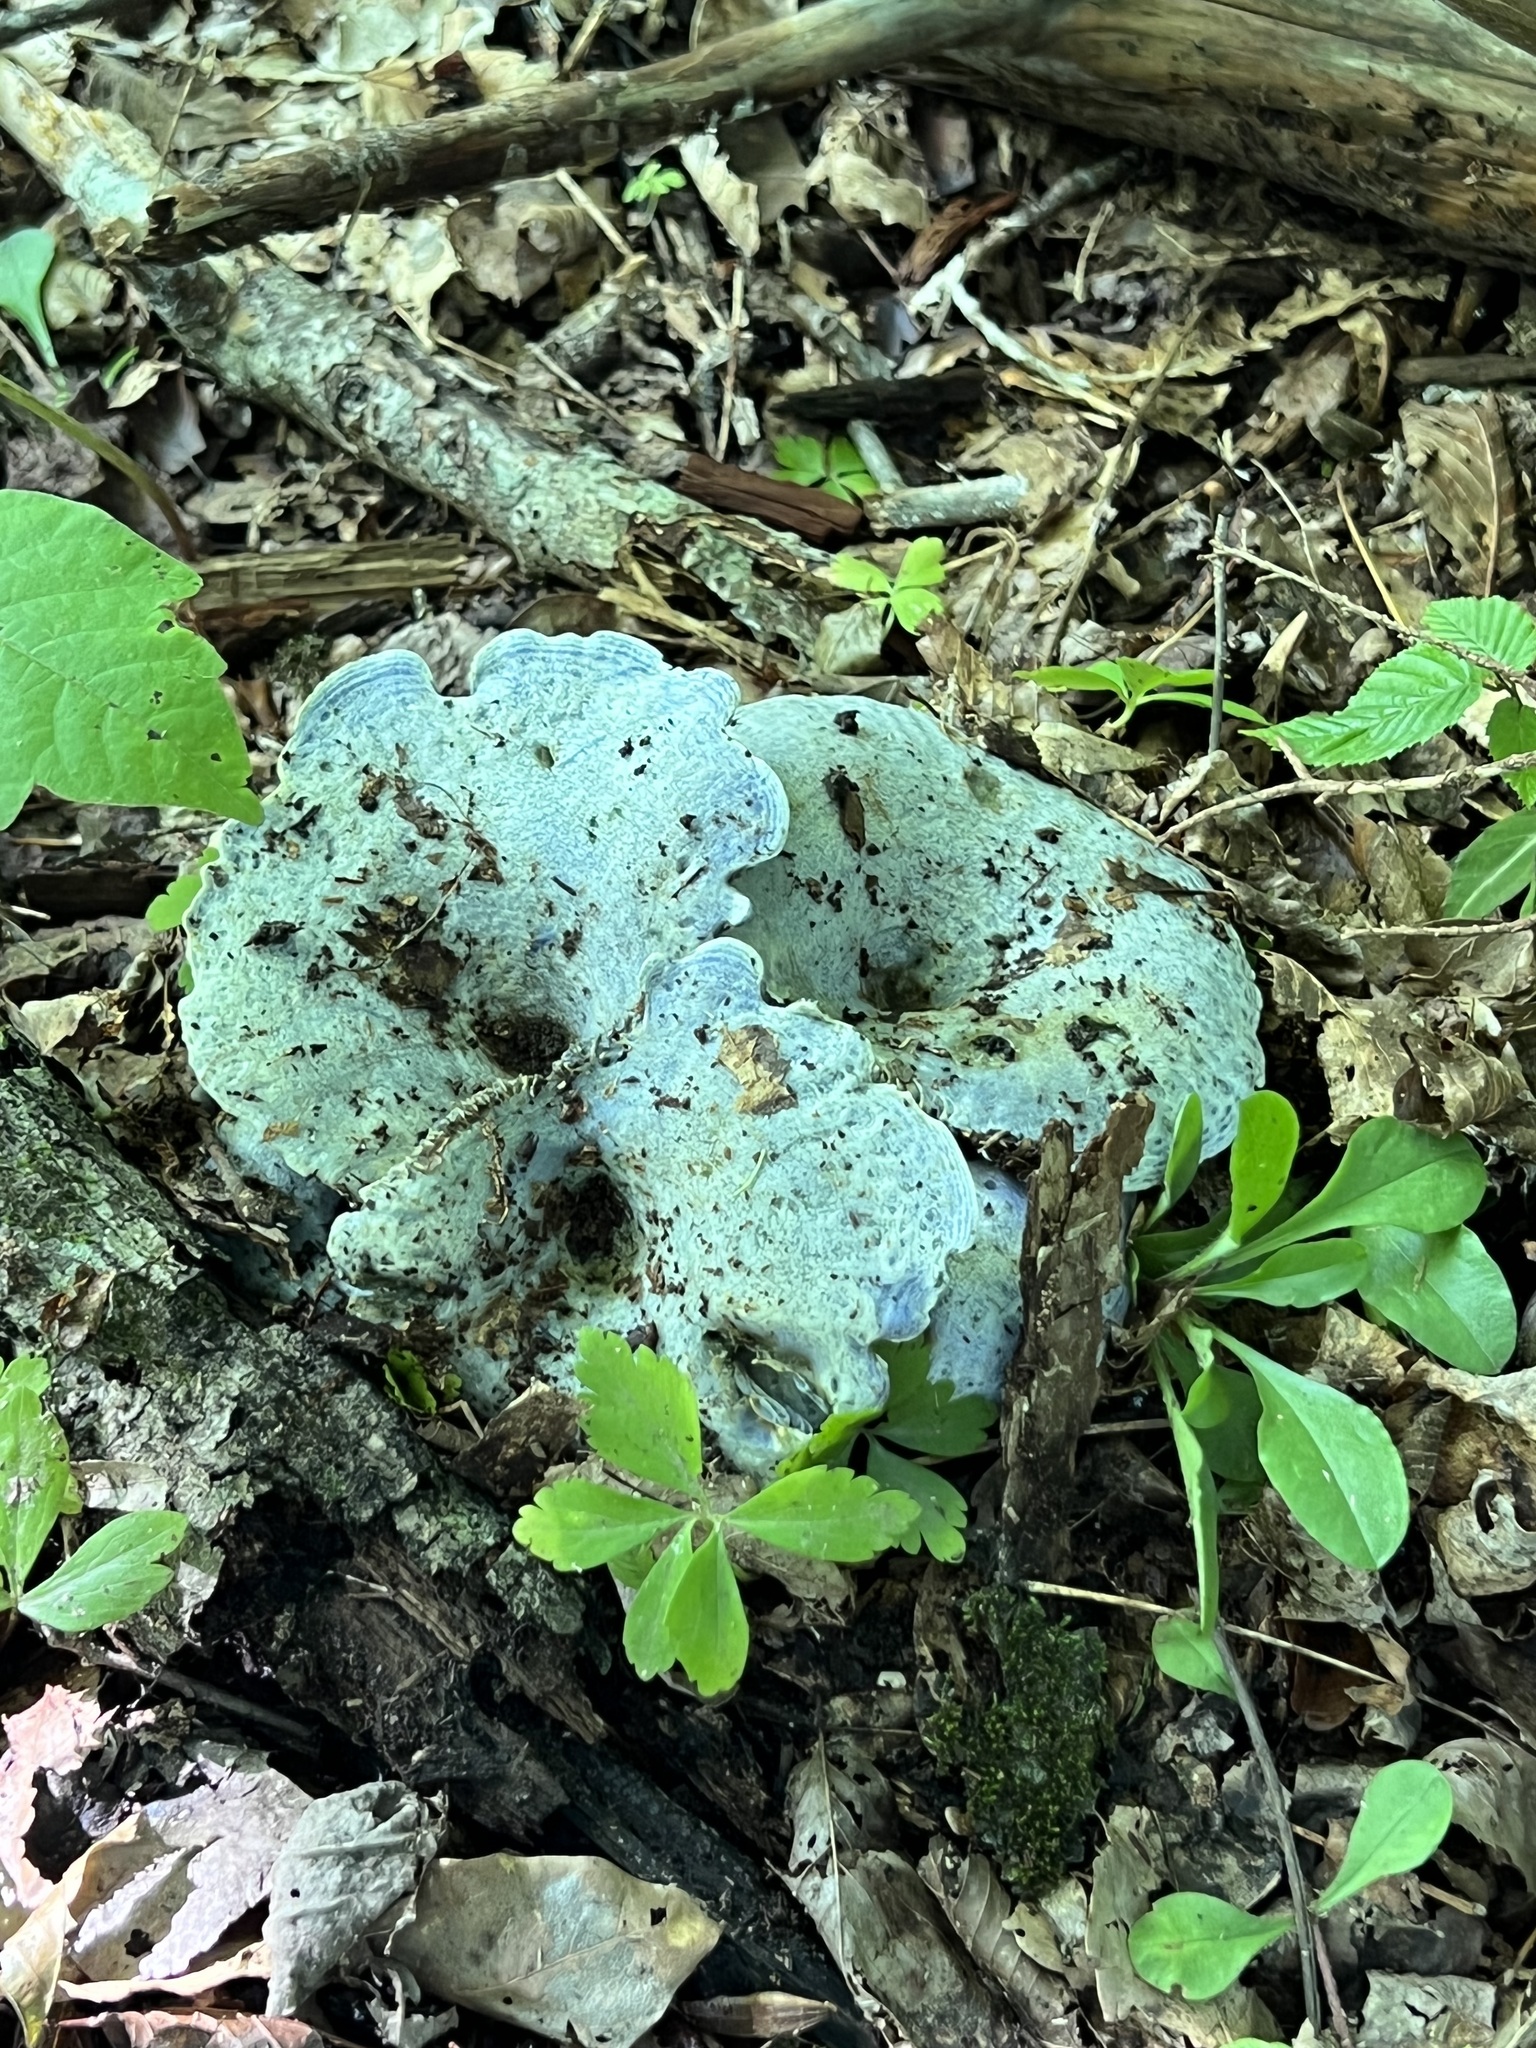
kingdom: Fungi
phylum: Basidiomycota
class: Agaricomycetes
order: Russulales
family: Russulaceae
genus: Lactarius
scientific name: Lactarius indigo
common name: Indigo milk cap
